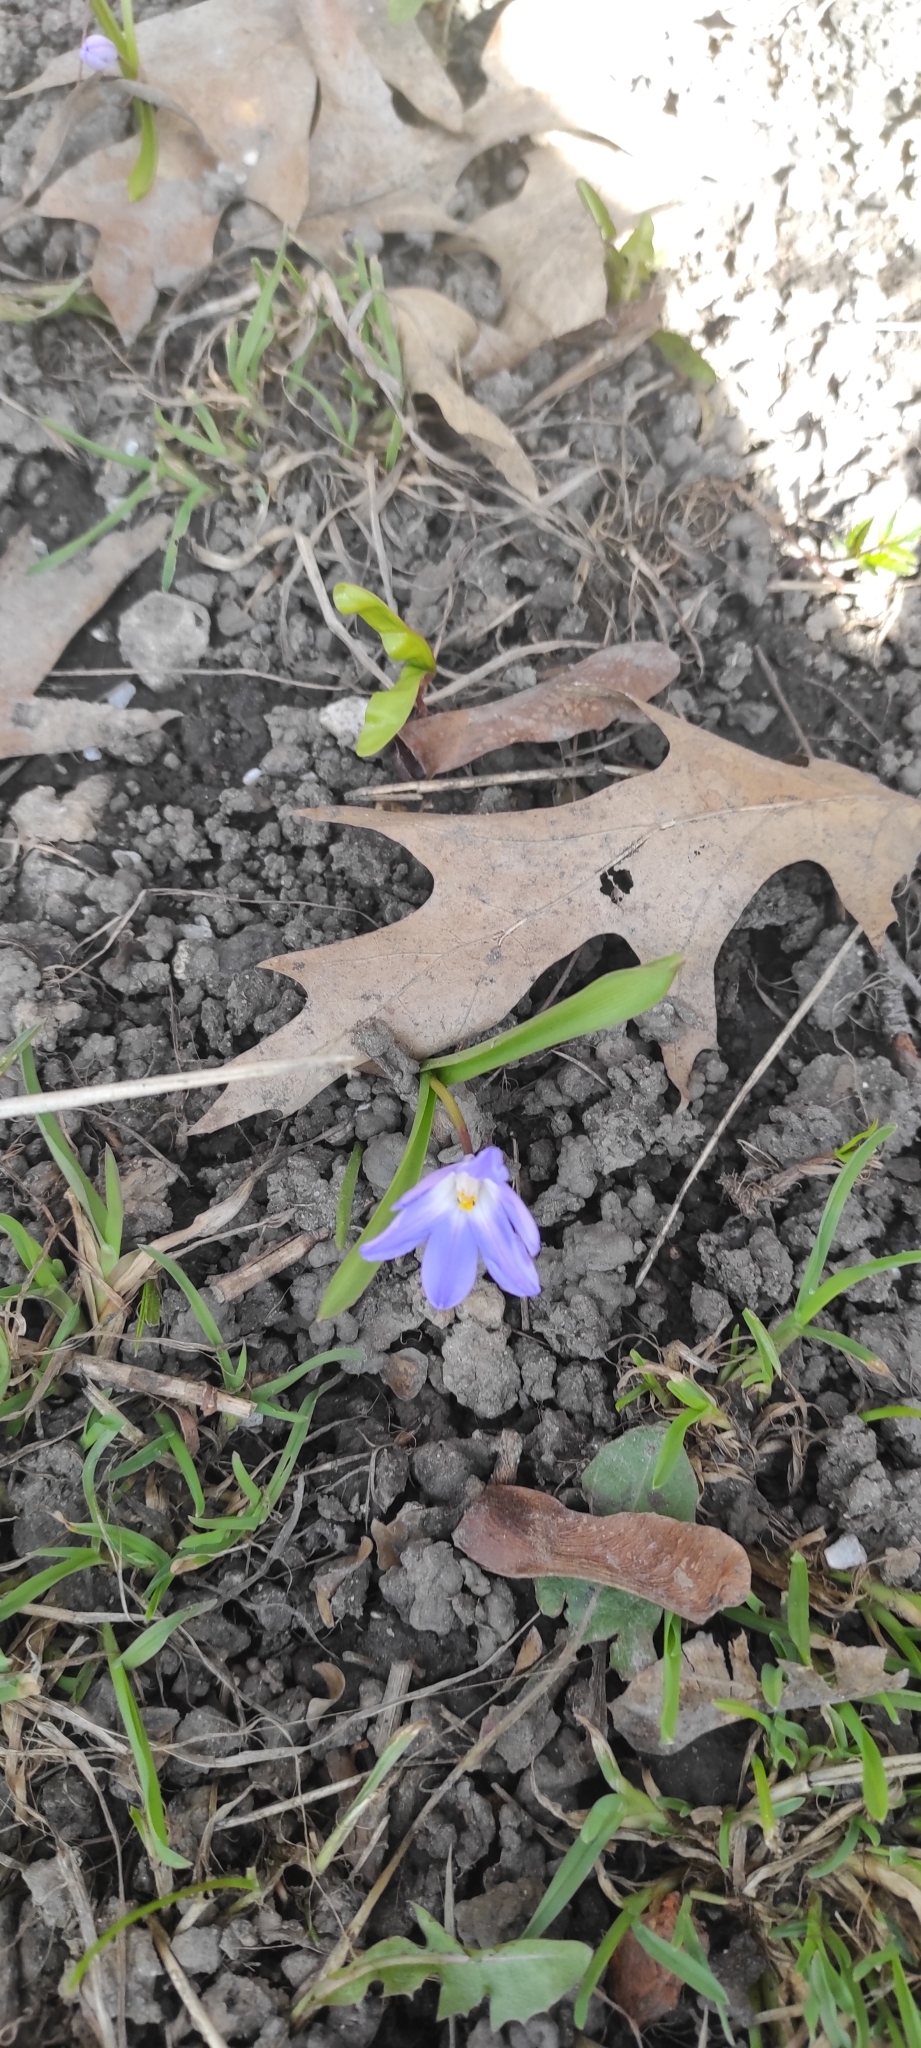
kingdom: Plantae
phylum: Tracheophyta
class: Liliopsida
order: Asparagales
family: Asparagaceae
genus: Scilla
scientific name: Scilla siberica
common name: Siberian squill
